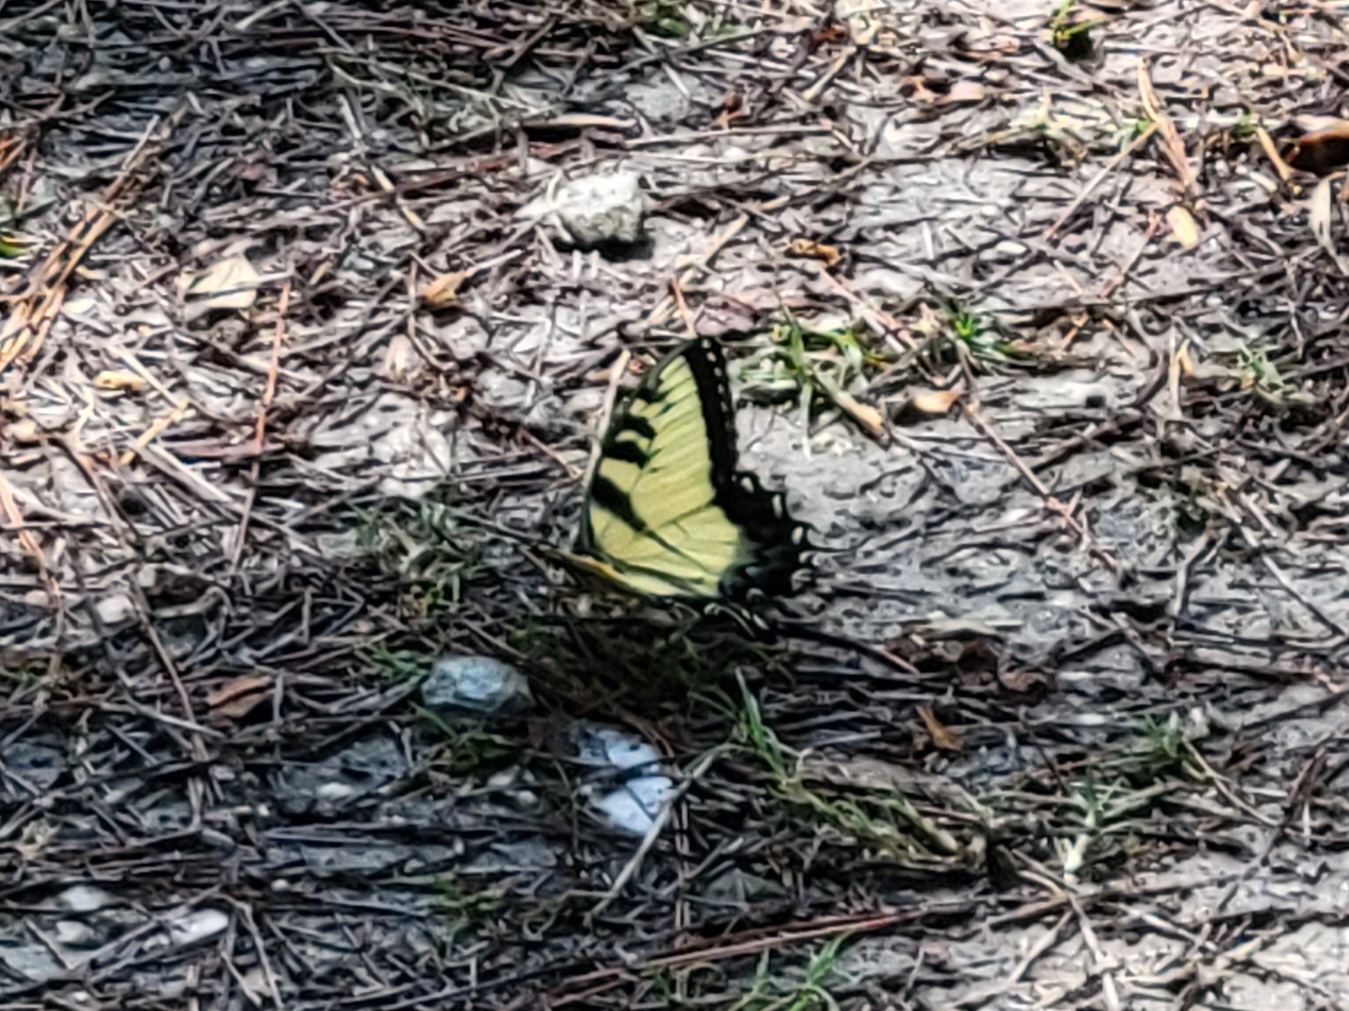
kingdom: Animalia
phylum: Arthropoda
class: Insecta
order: Lepidoptera
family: Papilionidae
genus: Papilio
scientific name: Papilio glaucus
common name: Tiger swallowtail
